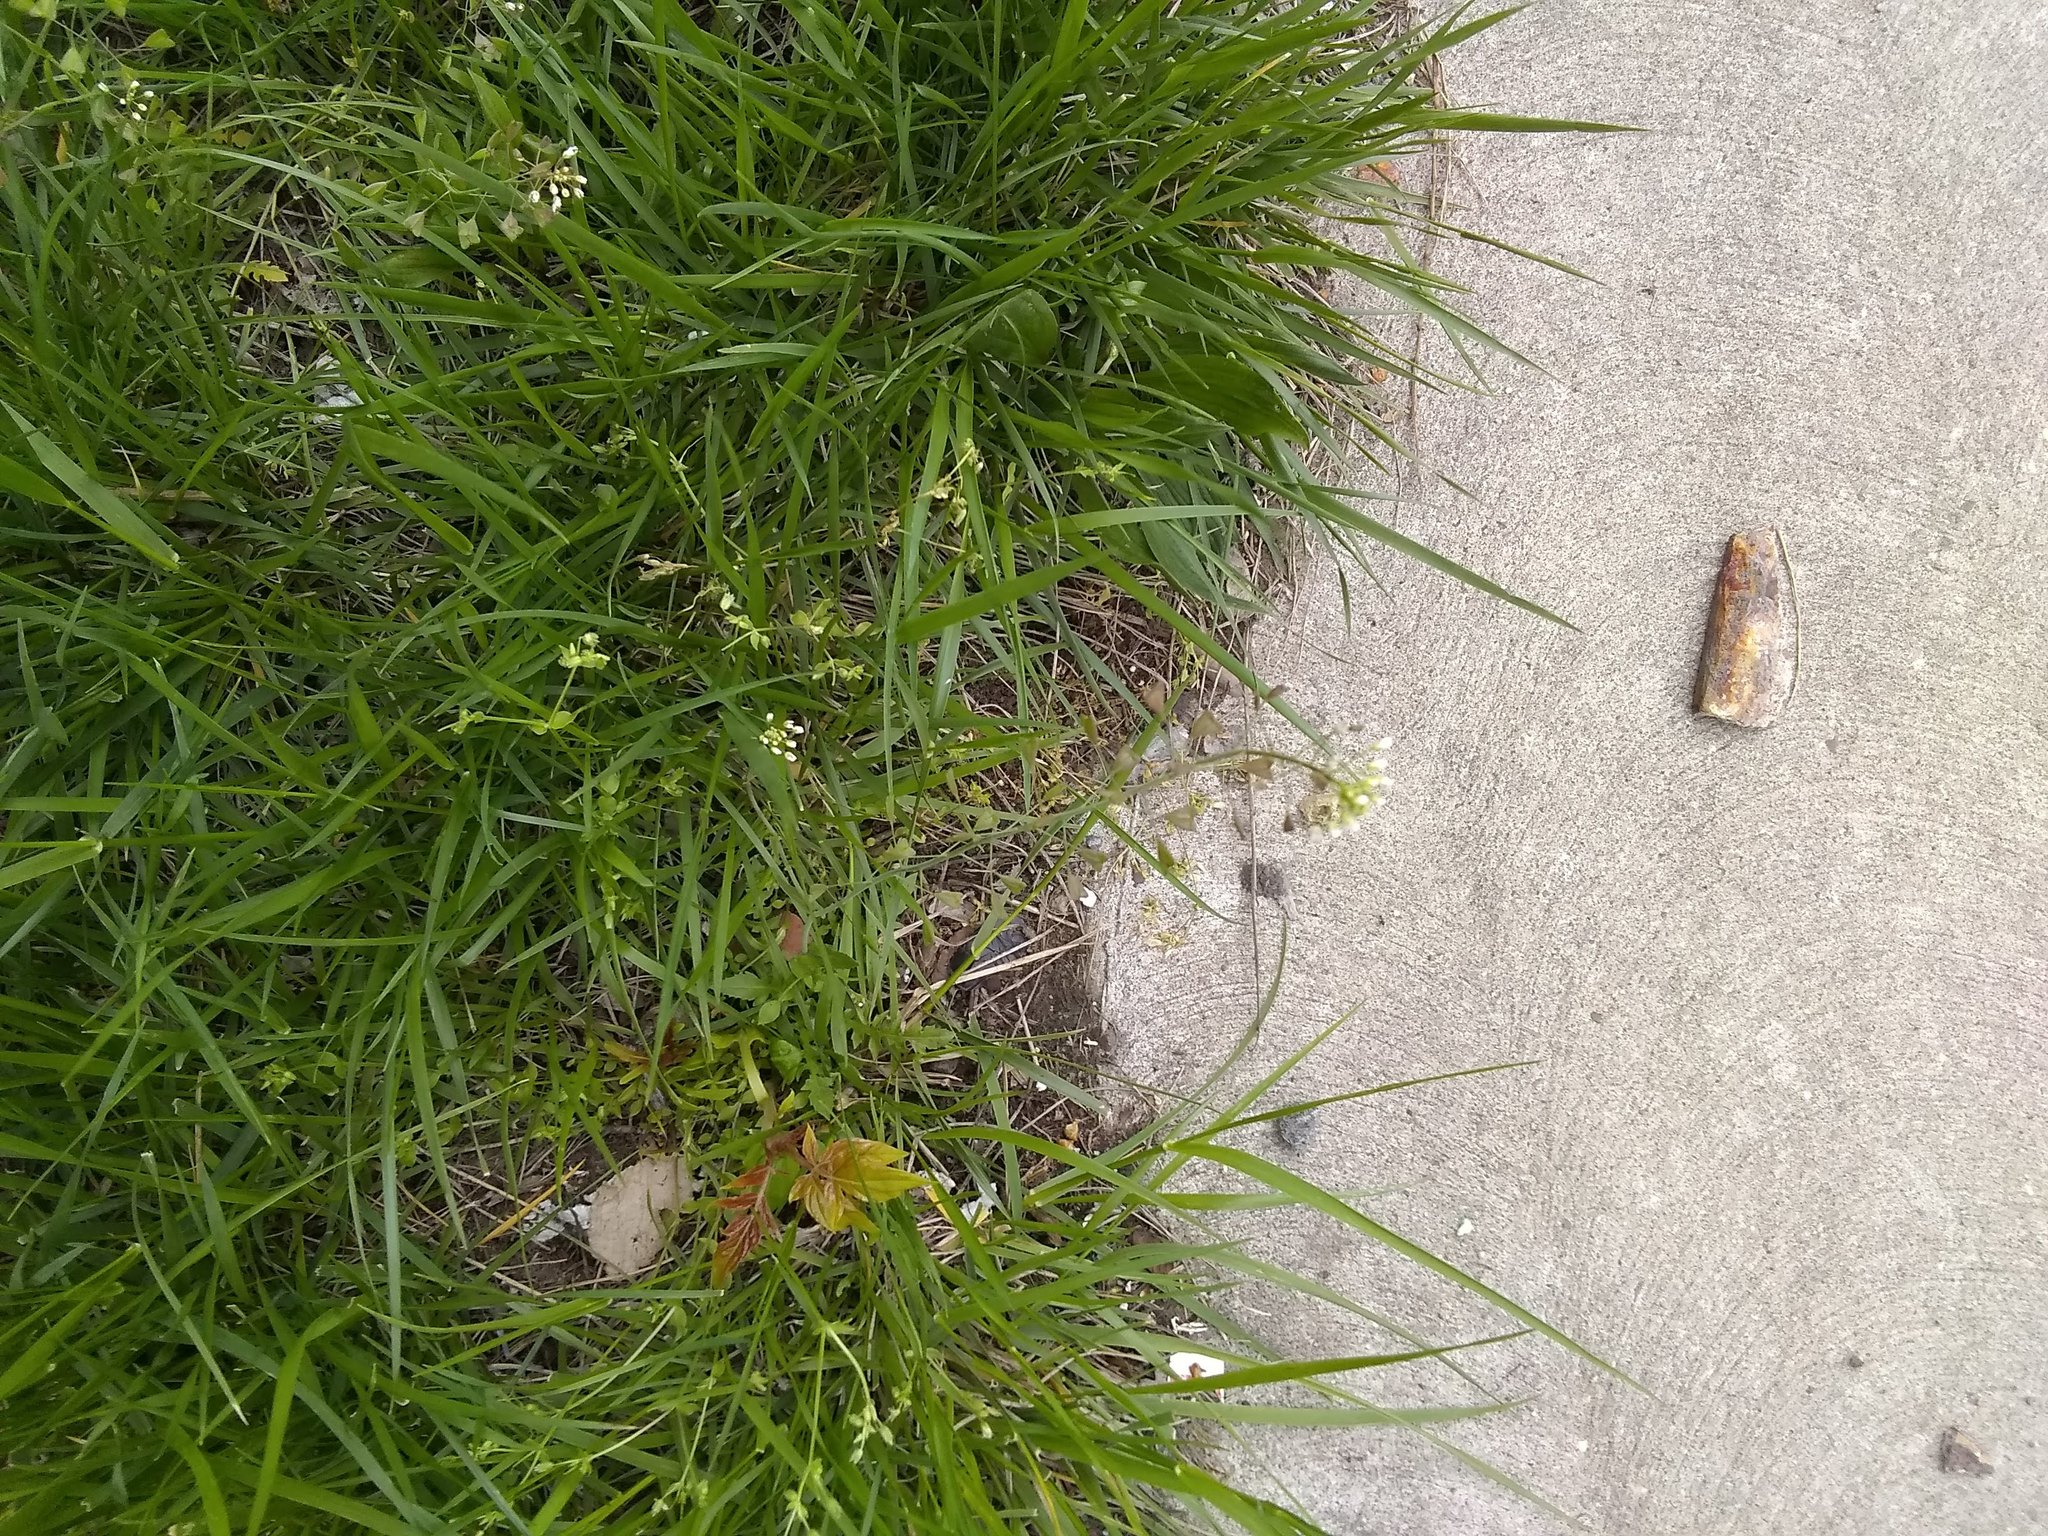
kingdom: Plantae
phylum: Tracheophyta
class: Magnoliopsida
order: Brassicales
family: Brassicaceae
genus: Capsella
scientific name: Capsella bursa-pastoris
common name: Shepherd's purse
